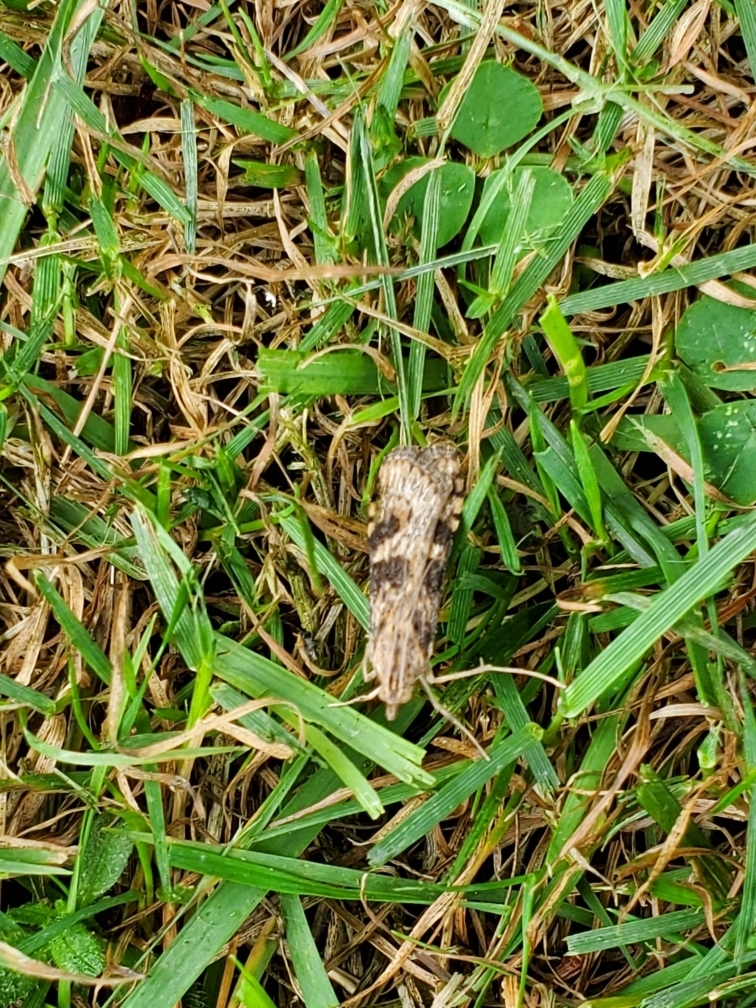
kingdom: Animalia
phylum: Arthropoda
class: Insecta
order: Lepidoptera
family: Crambidae
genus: Nomophila
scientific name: Nomophila nearctica
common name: American rush veneer
